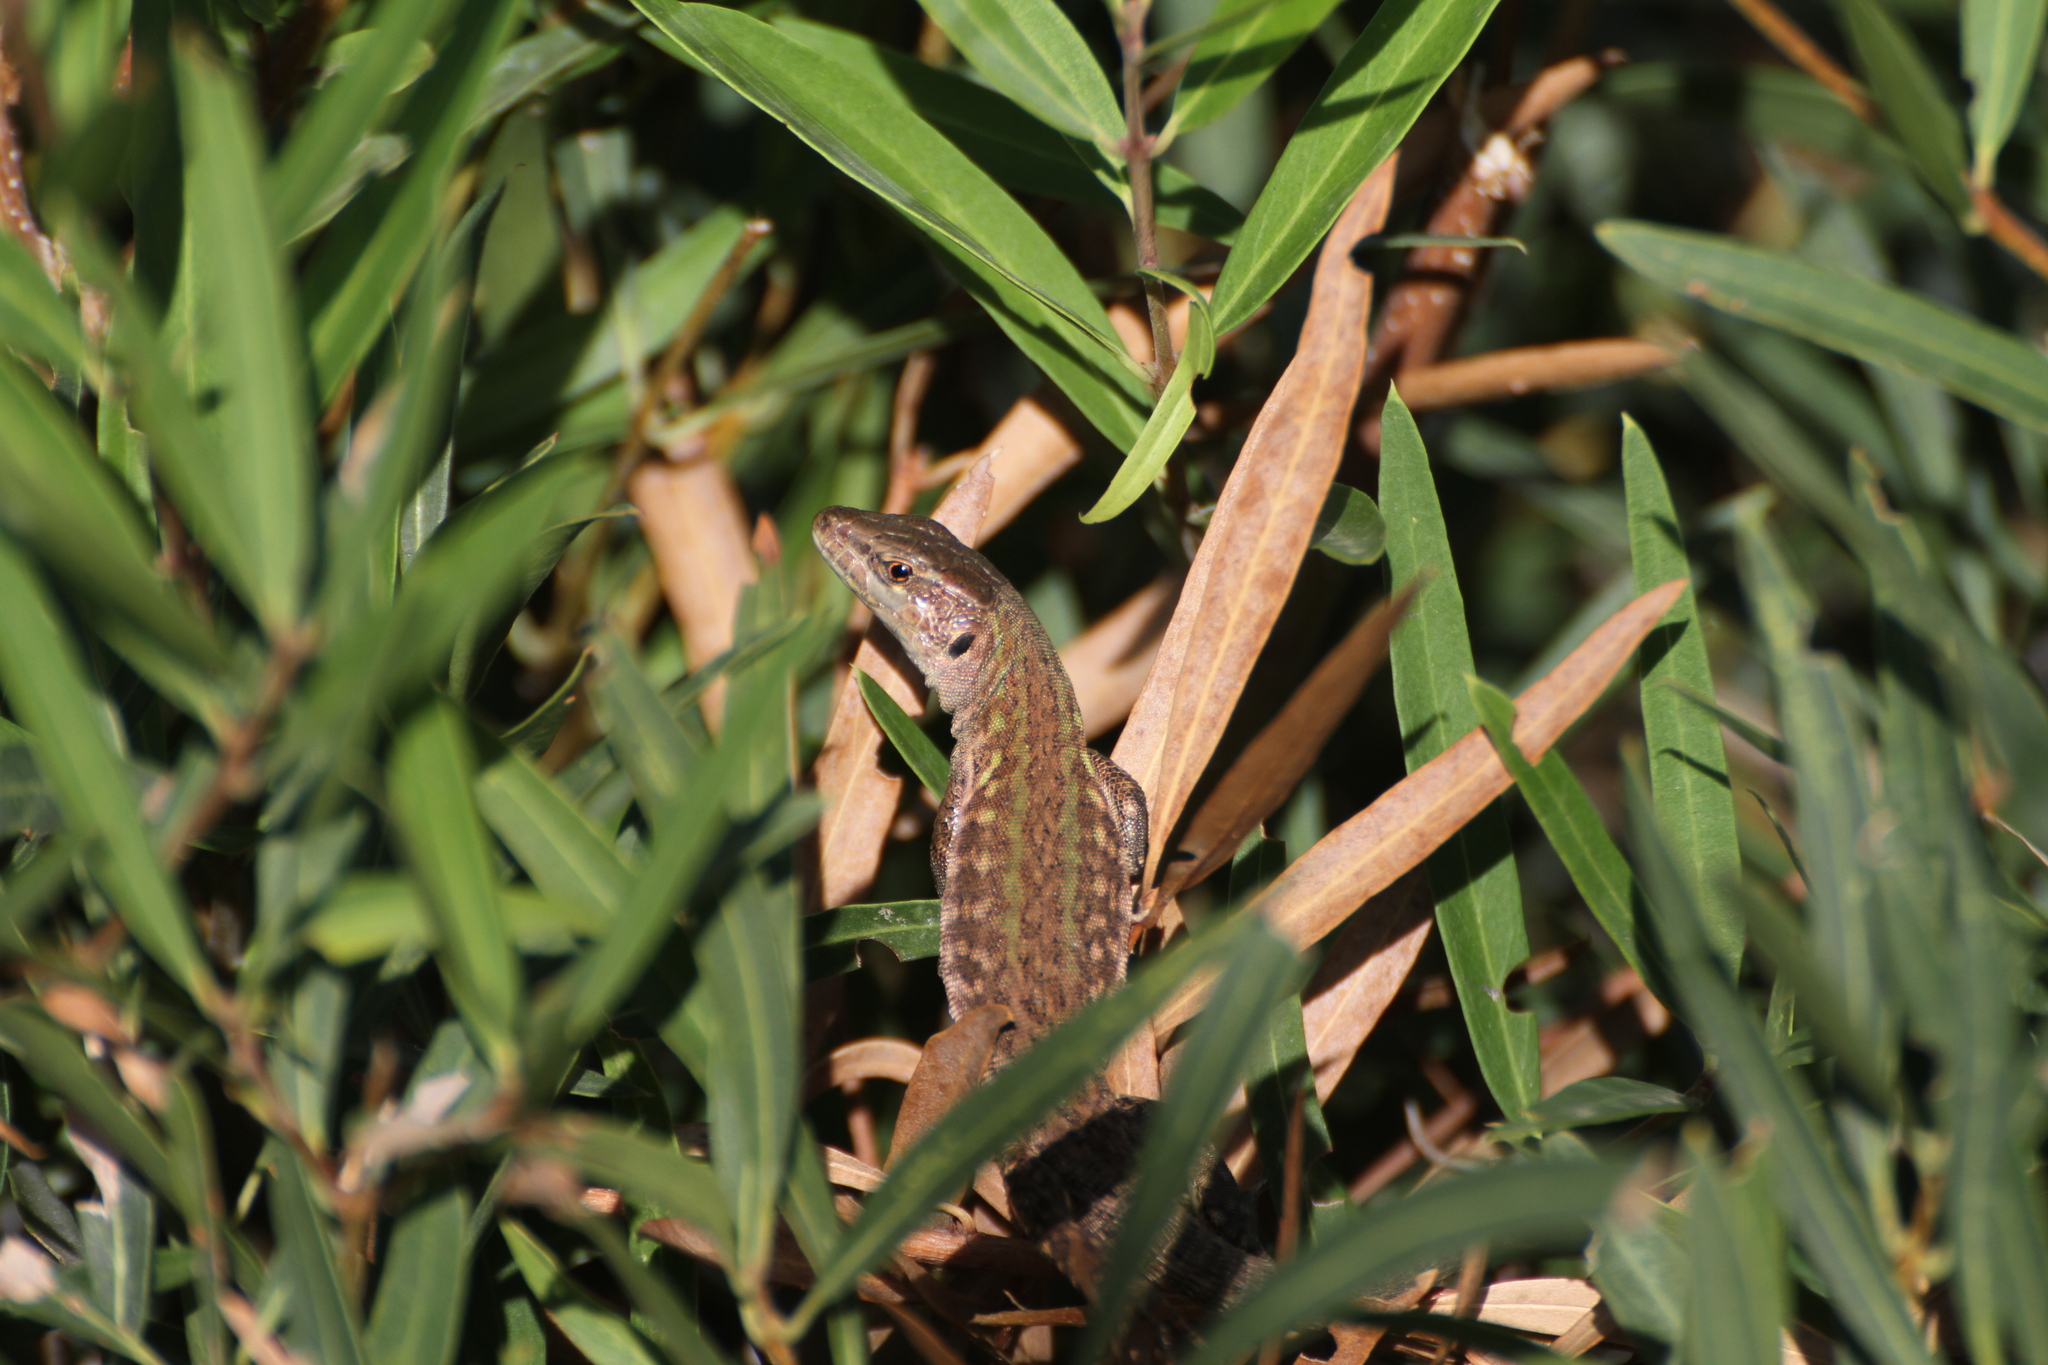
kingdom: Animalia
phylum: Chordata
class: Squamata
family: Lacertidae
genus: Podarcis
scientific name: Podarcis siculus
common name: Italian wall lizard
